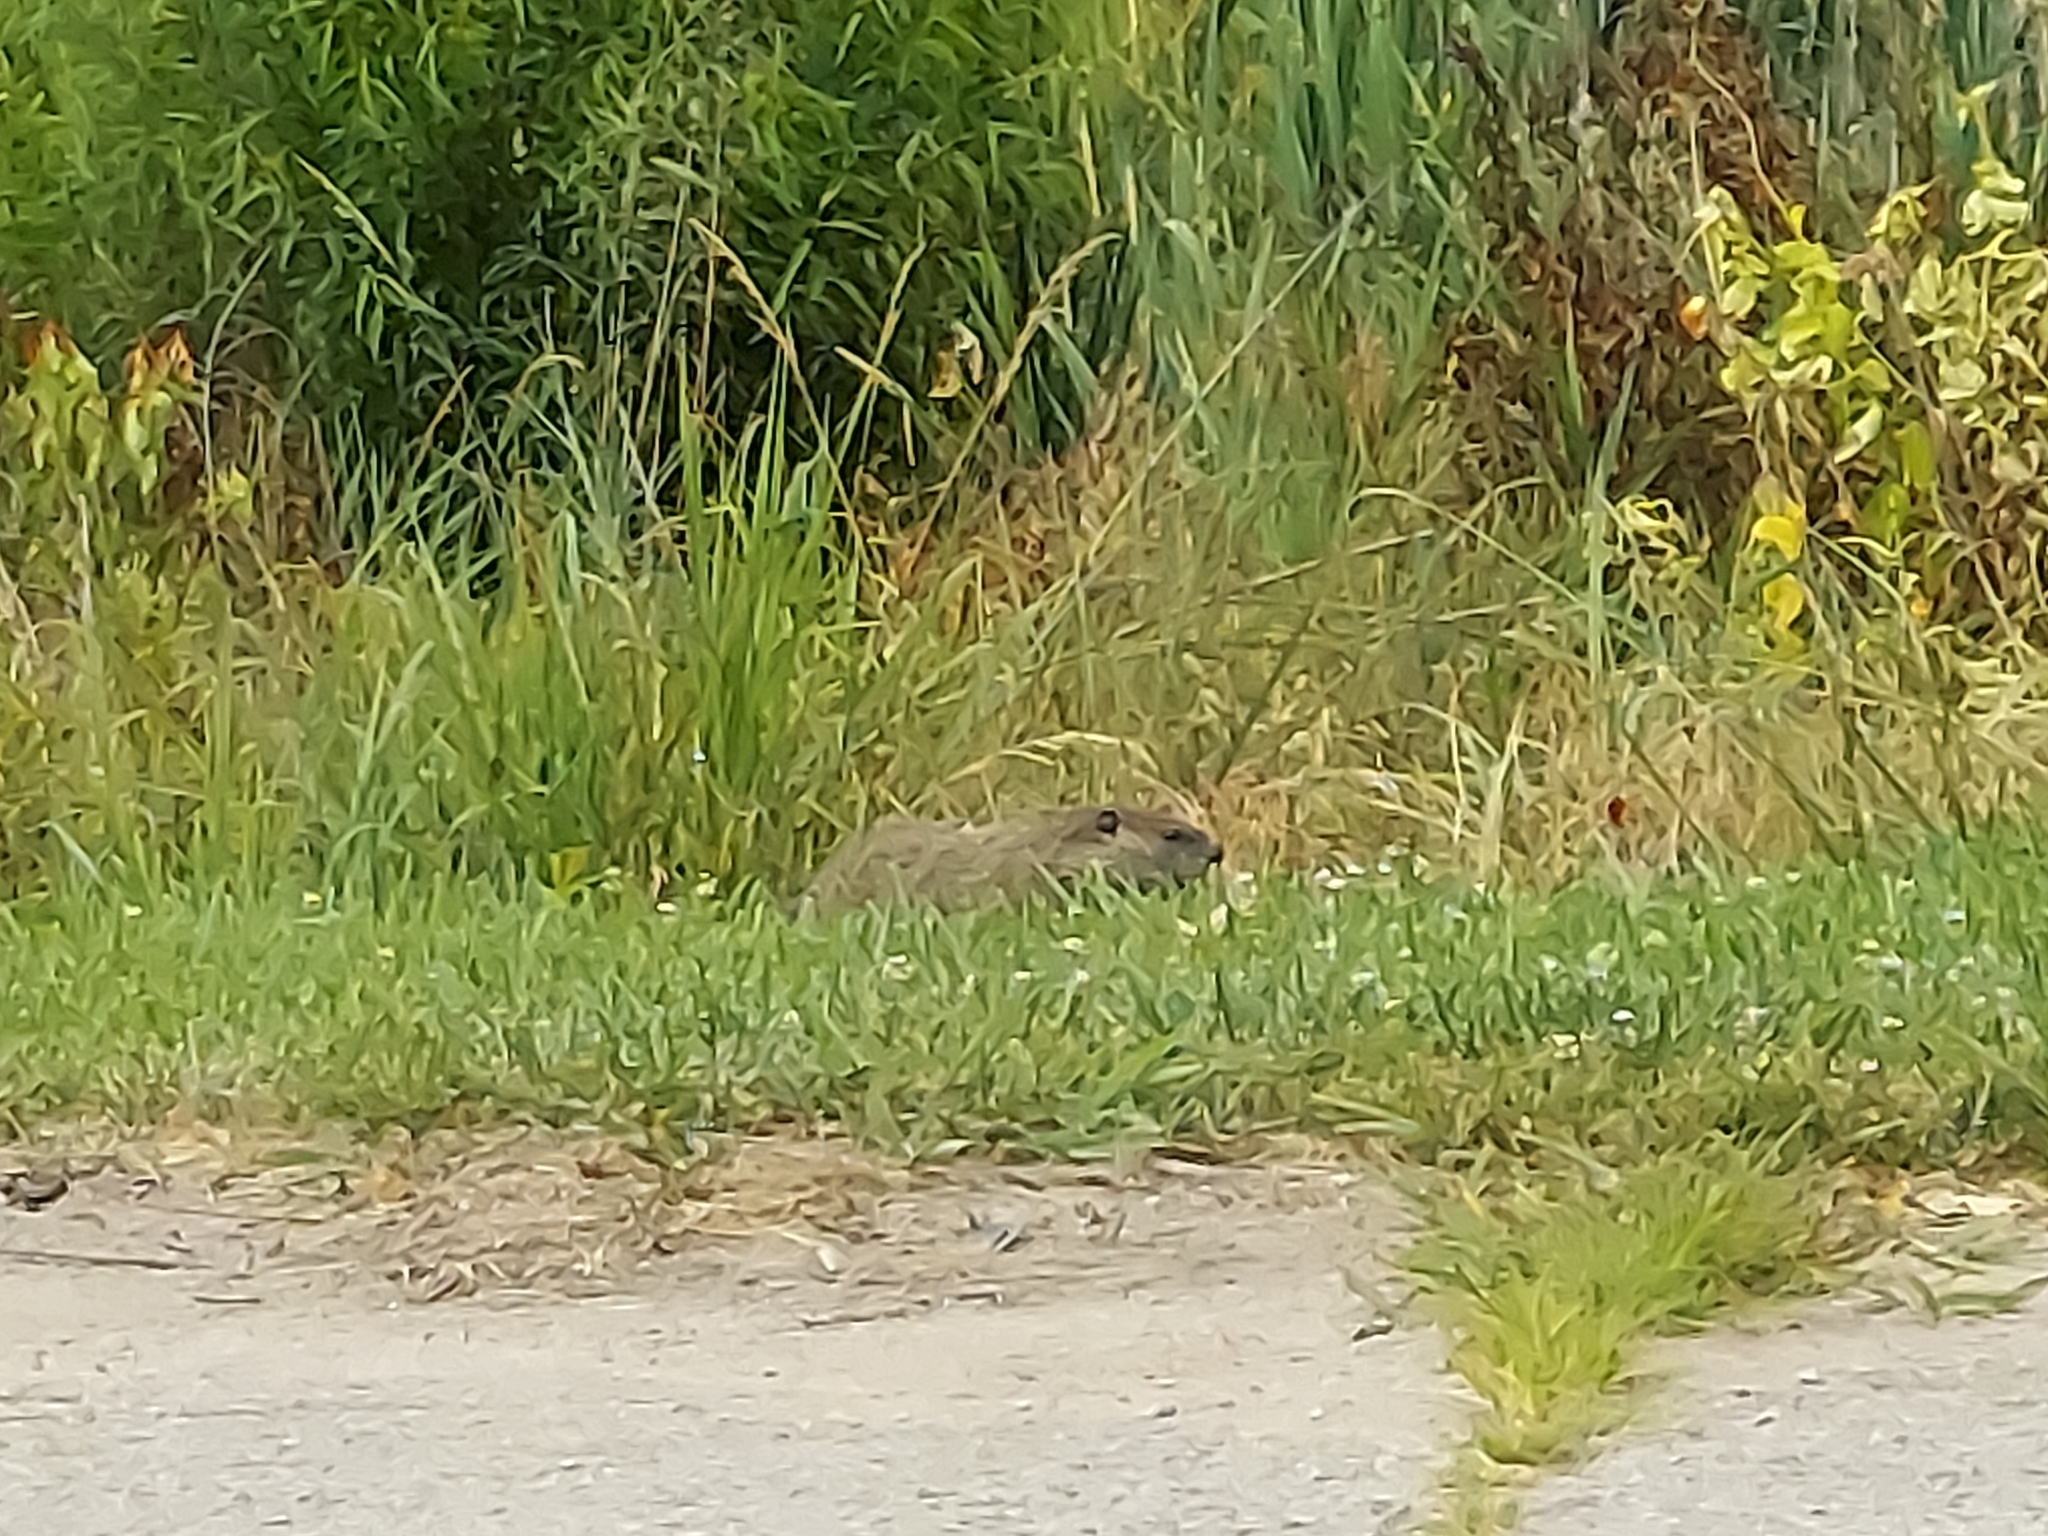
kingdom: Animalia
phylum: Chordata
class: Mammalia
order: Rodentia
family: Sciuridae
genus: Marmota
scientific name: Marmota monax
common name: Groundhog
